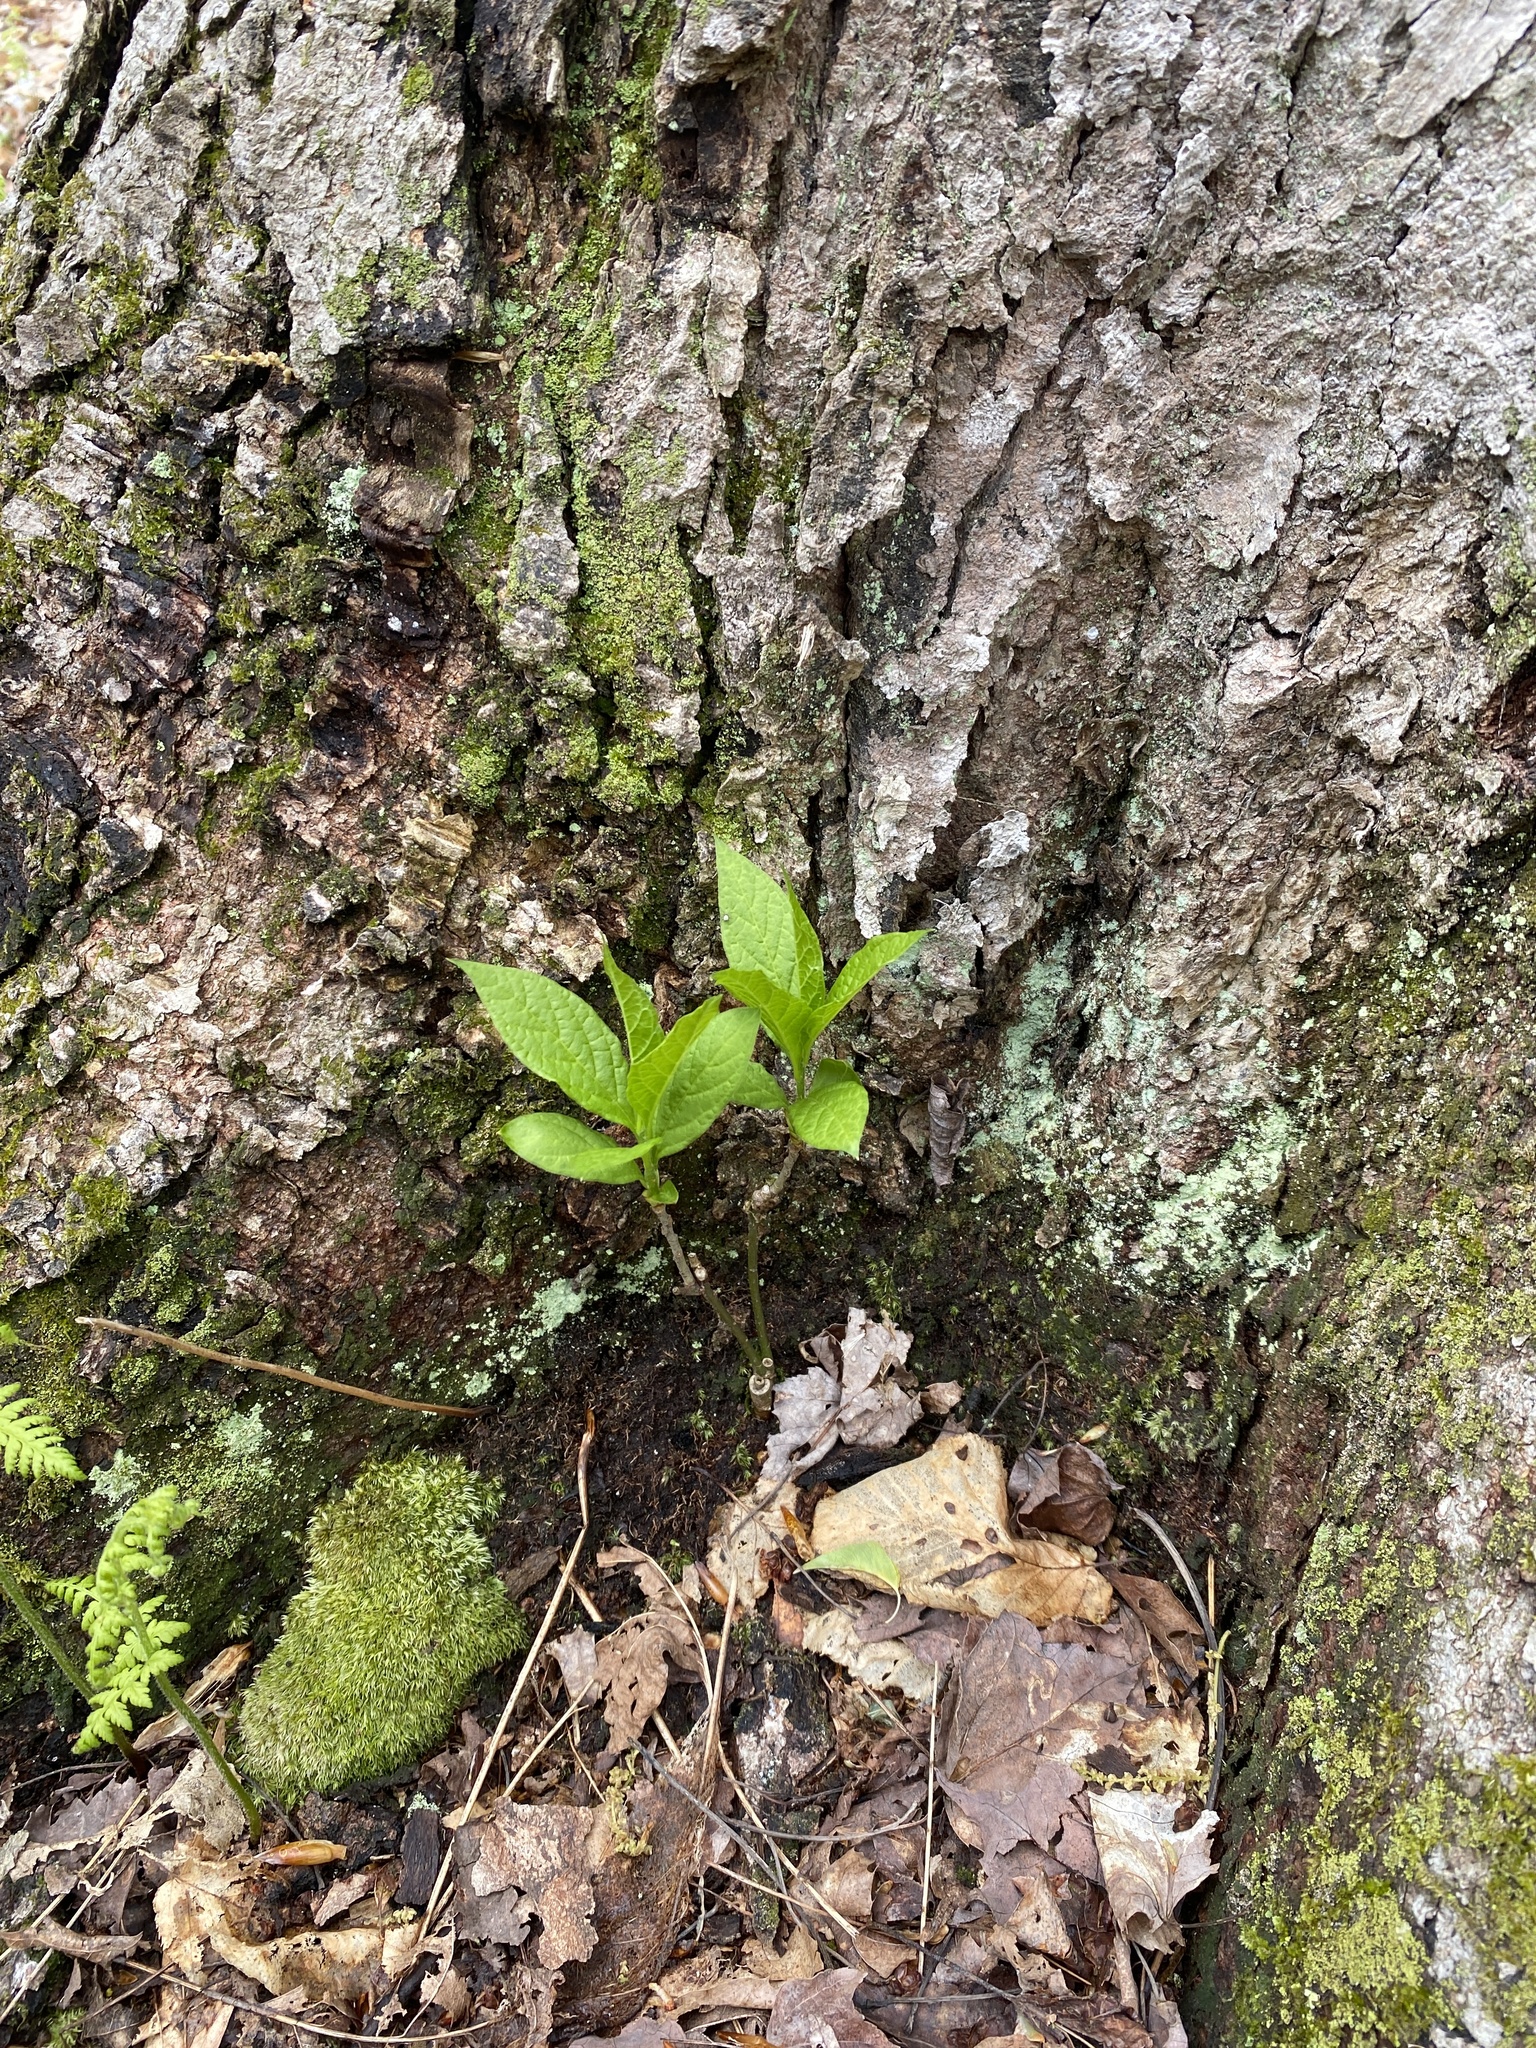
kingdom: Plantae
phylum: Tracheophyta
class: Magnoliopsida
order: Santalales
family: Cervantesiaceae
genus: Pyrularia
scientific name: Pyrularia pubera
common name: Oilnut
